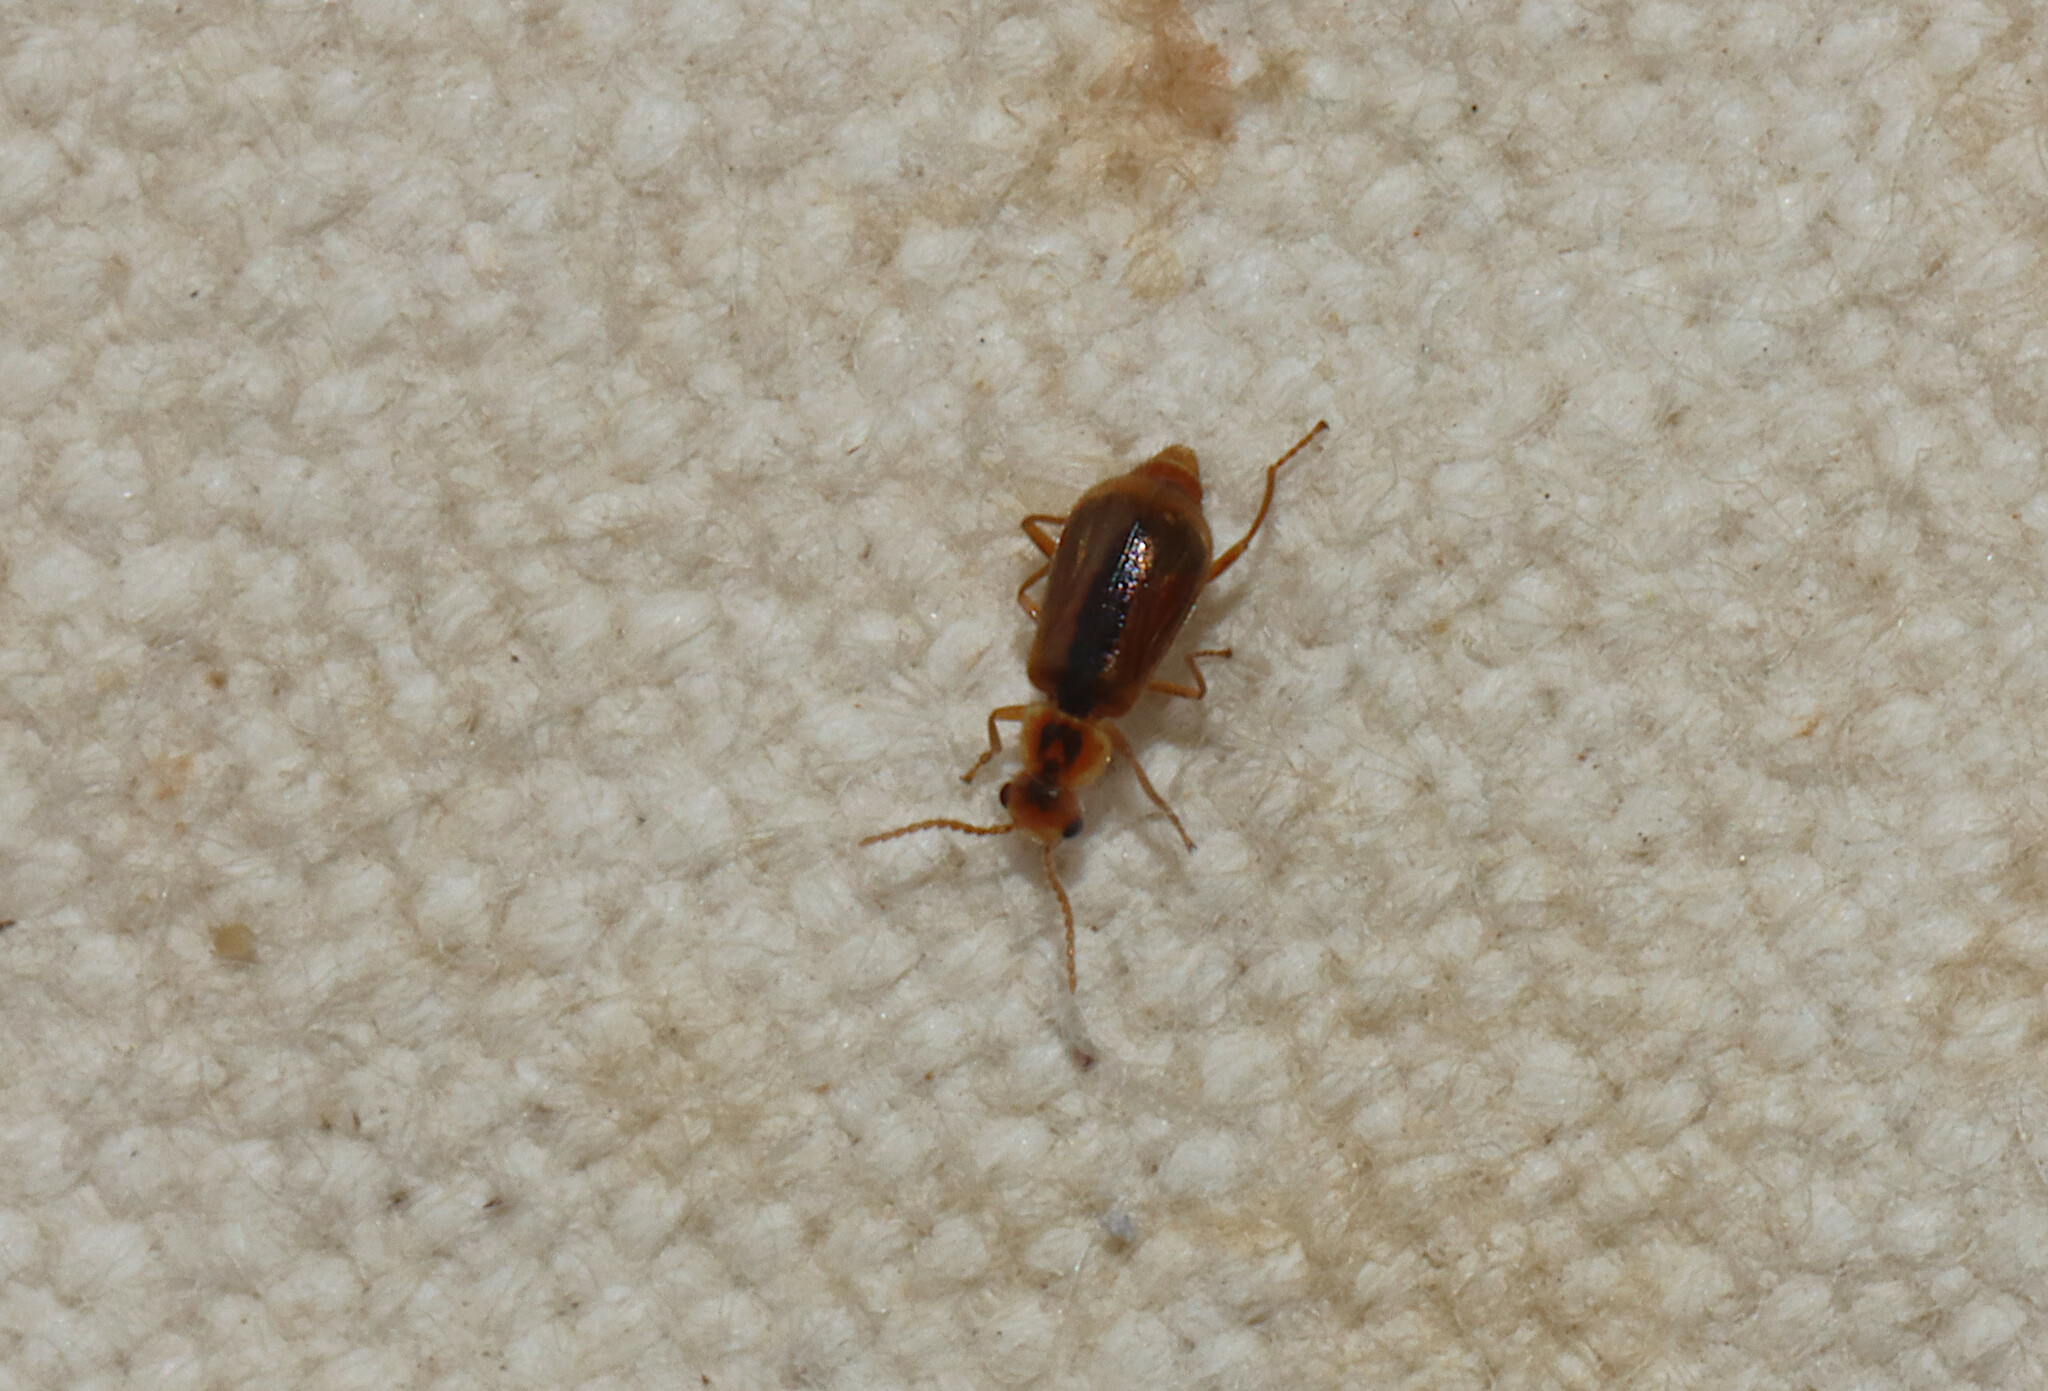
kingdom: Animalia
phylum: Arthropoda
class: Insecta
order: Coleoptera
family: Malachiidae
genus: Attalus
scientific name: Attalus
